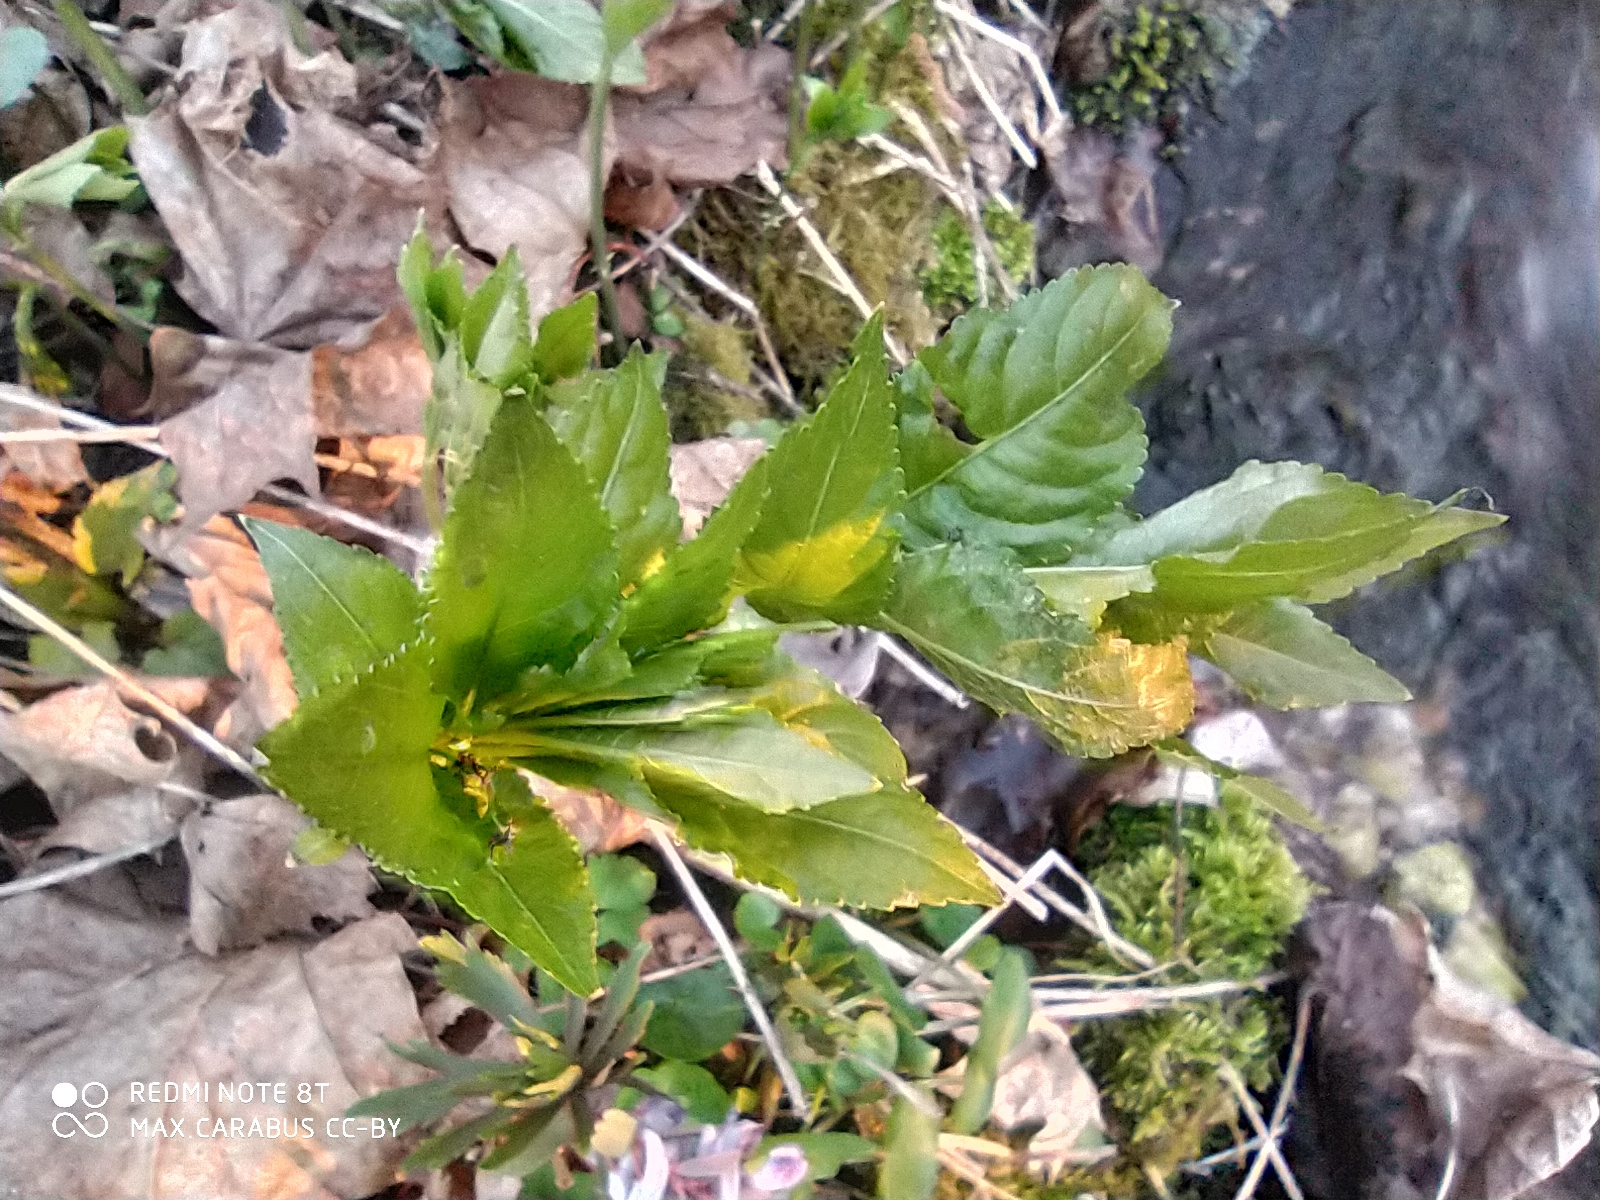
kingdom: Plantae
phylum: Tracheophyta
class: Magnoliopsida
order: Malpighiales
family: Euphorbiaceae
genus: Mercurialis
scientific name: Mercurialis perennis
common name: Dog mercury
